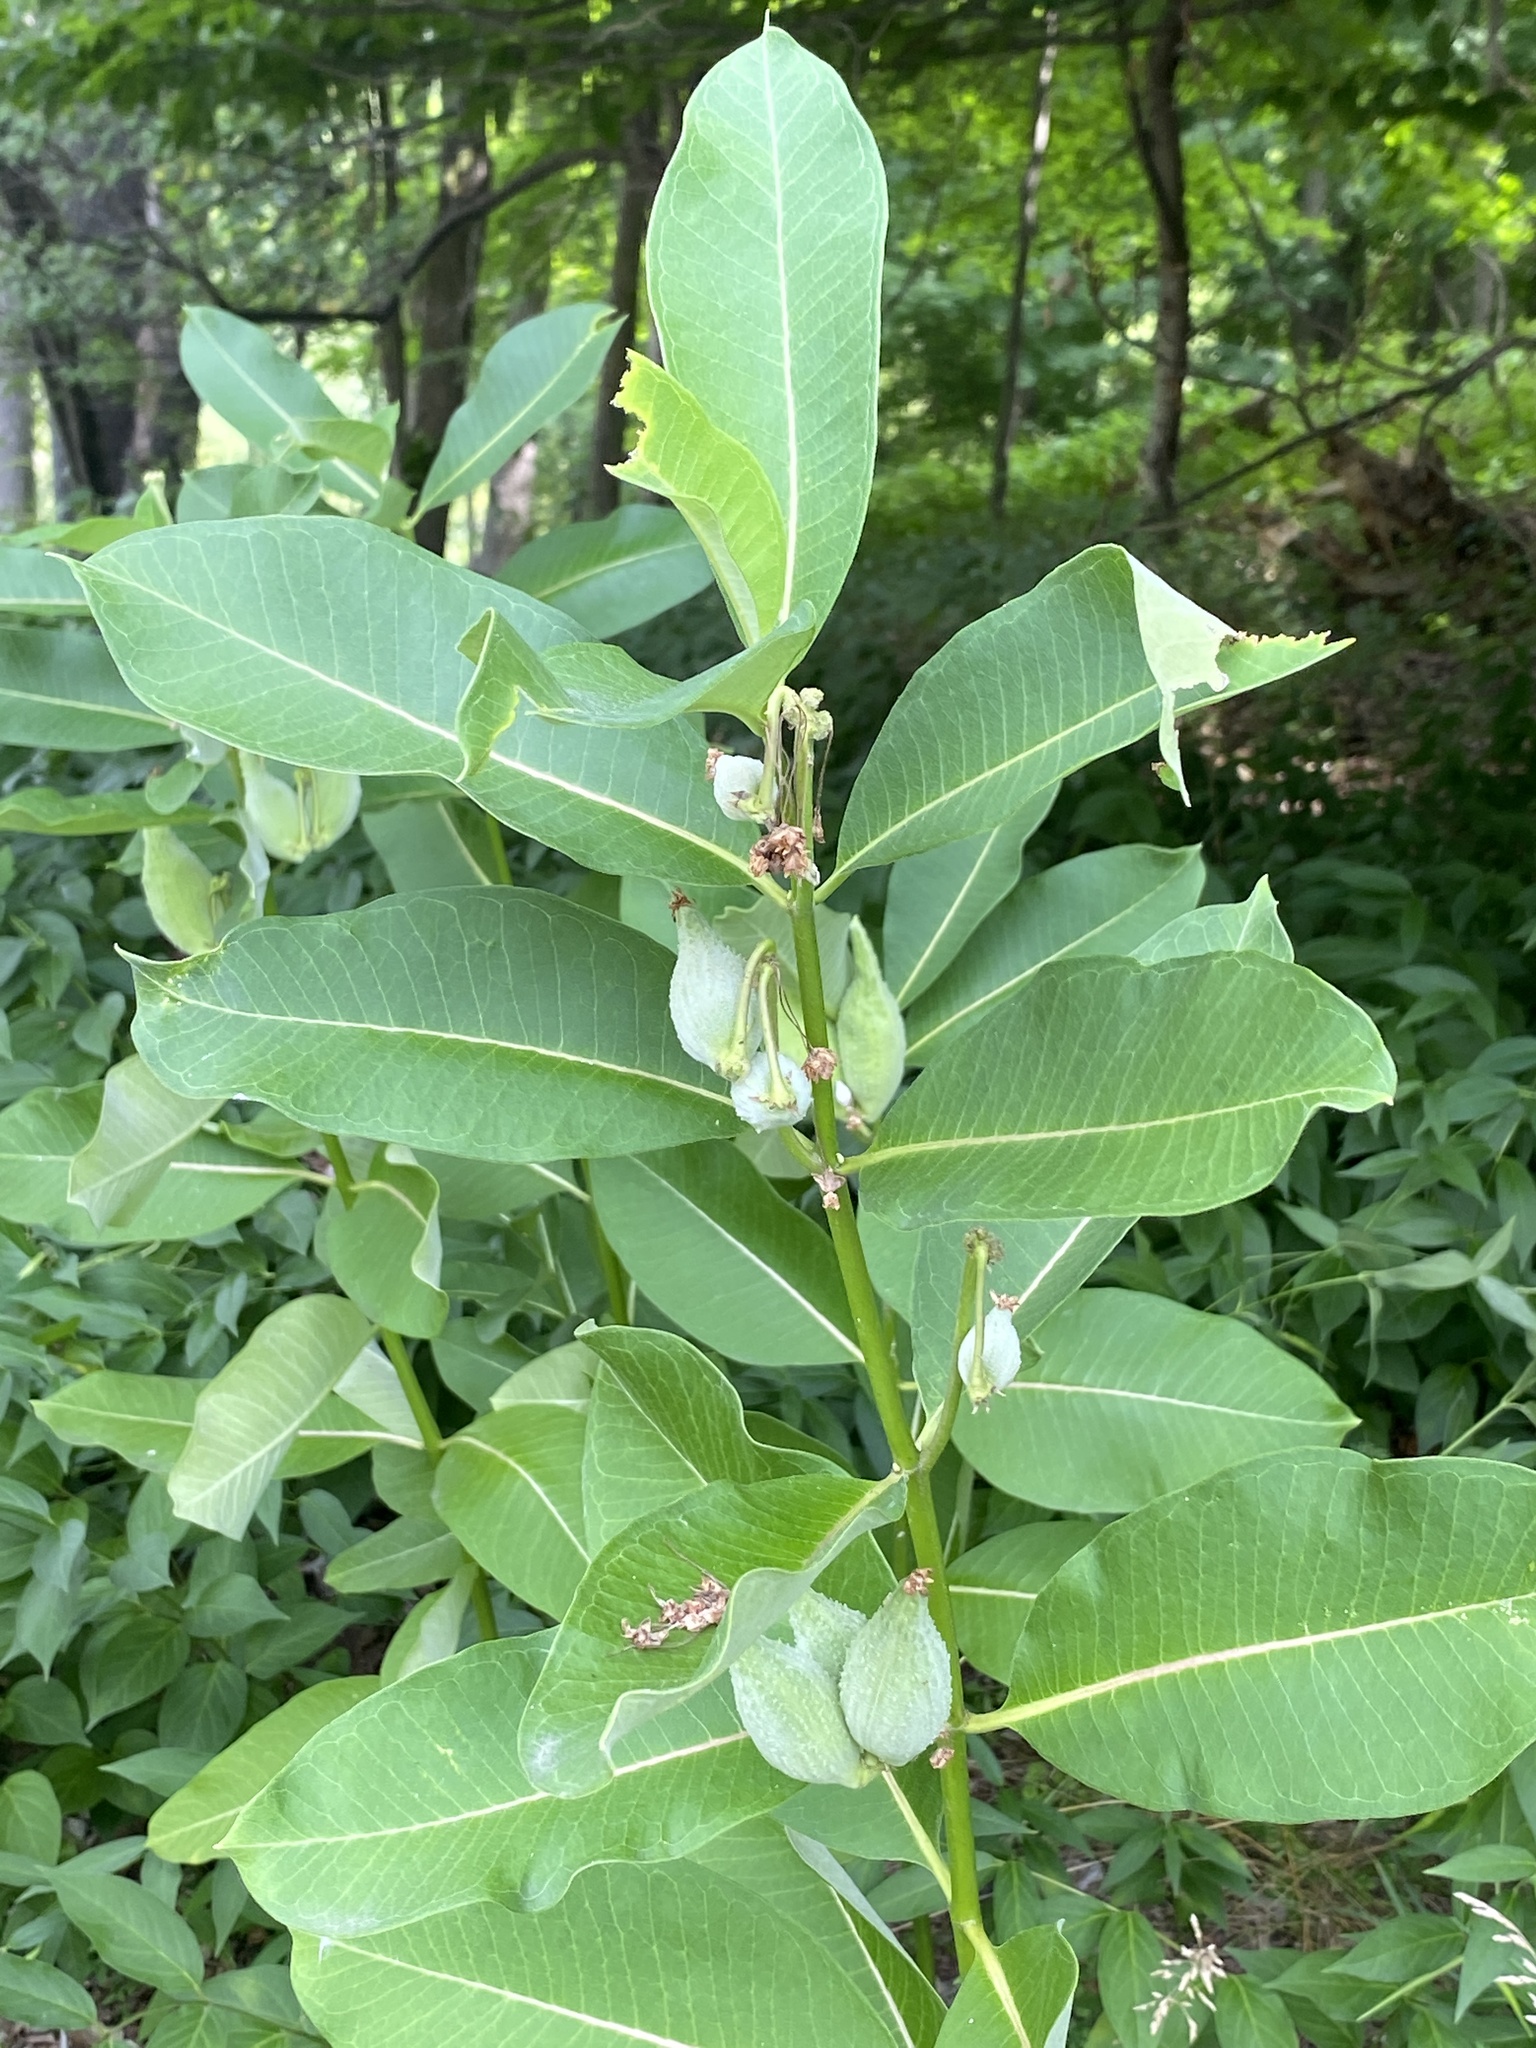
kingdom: Plantae
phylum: Tracheophyta
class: Magnoliopsida
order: Gentianales
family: Apocynaceae
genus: Asclepias
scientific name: Asclepias syriaca
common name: Common milkweed
